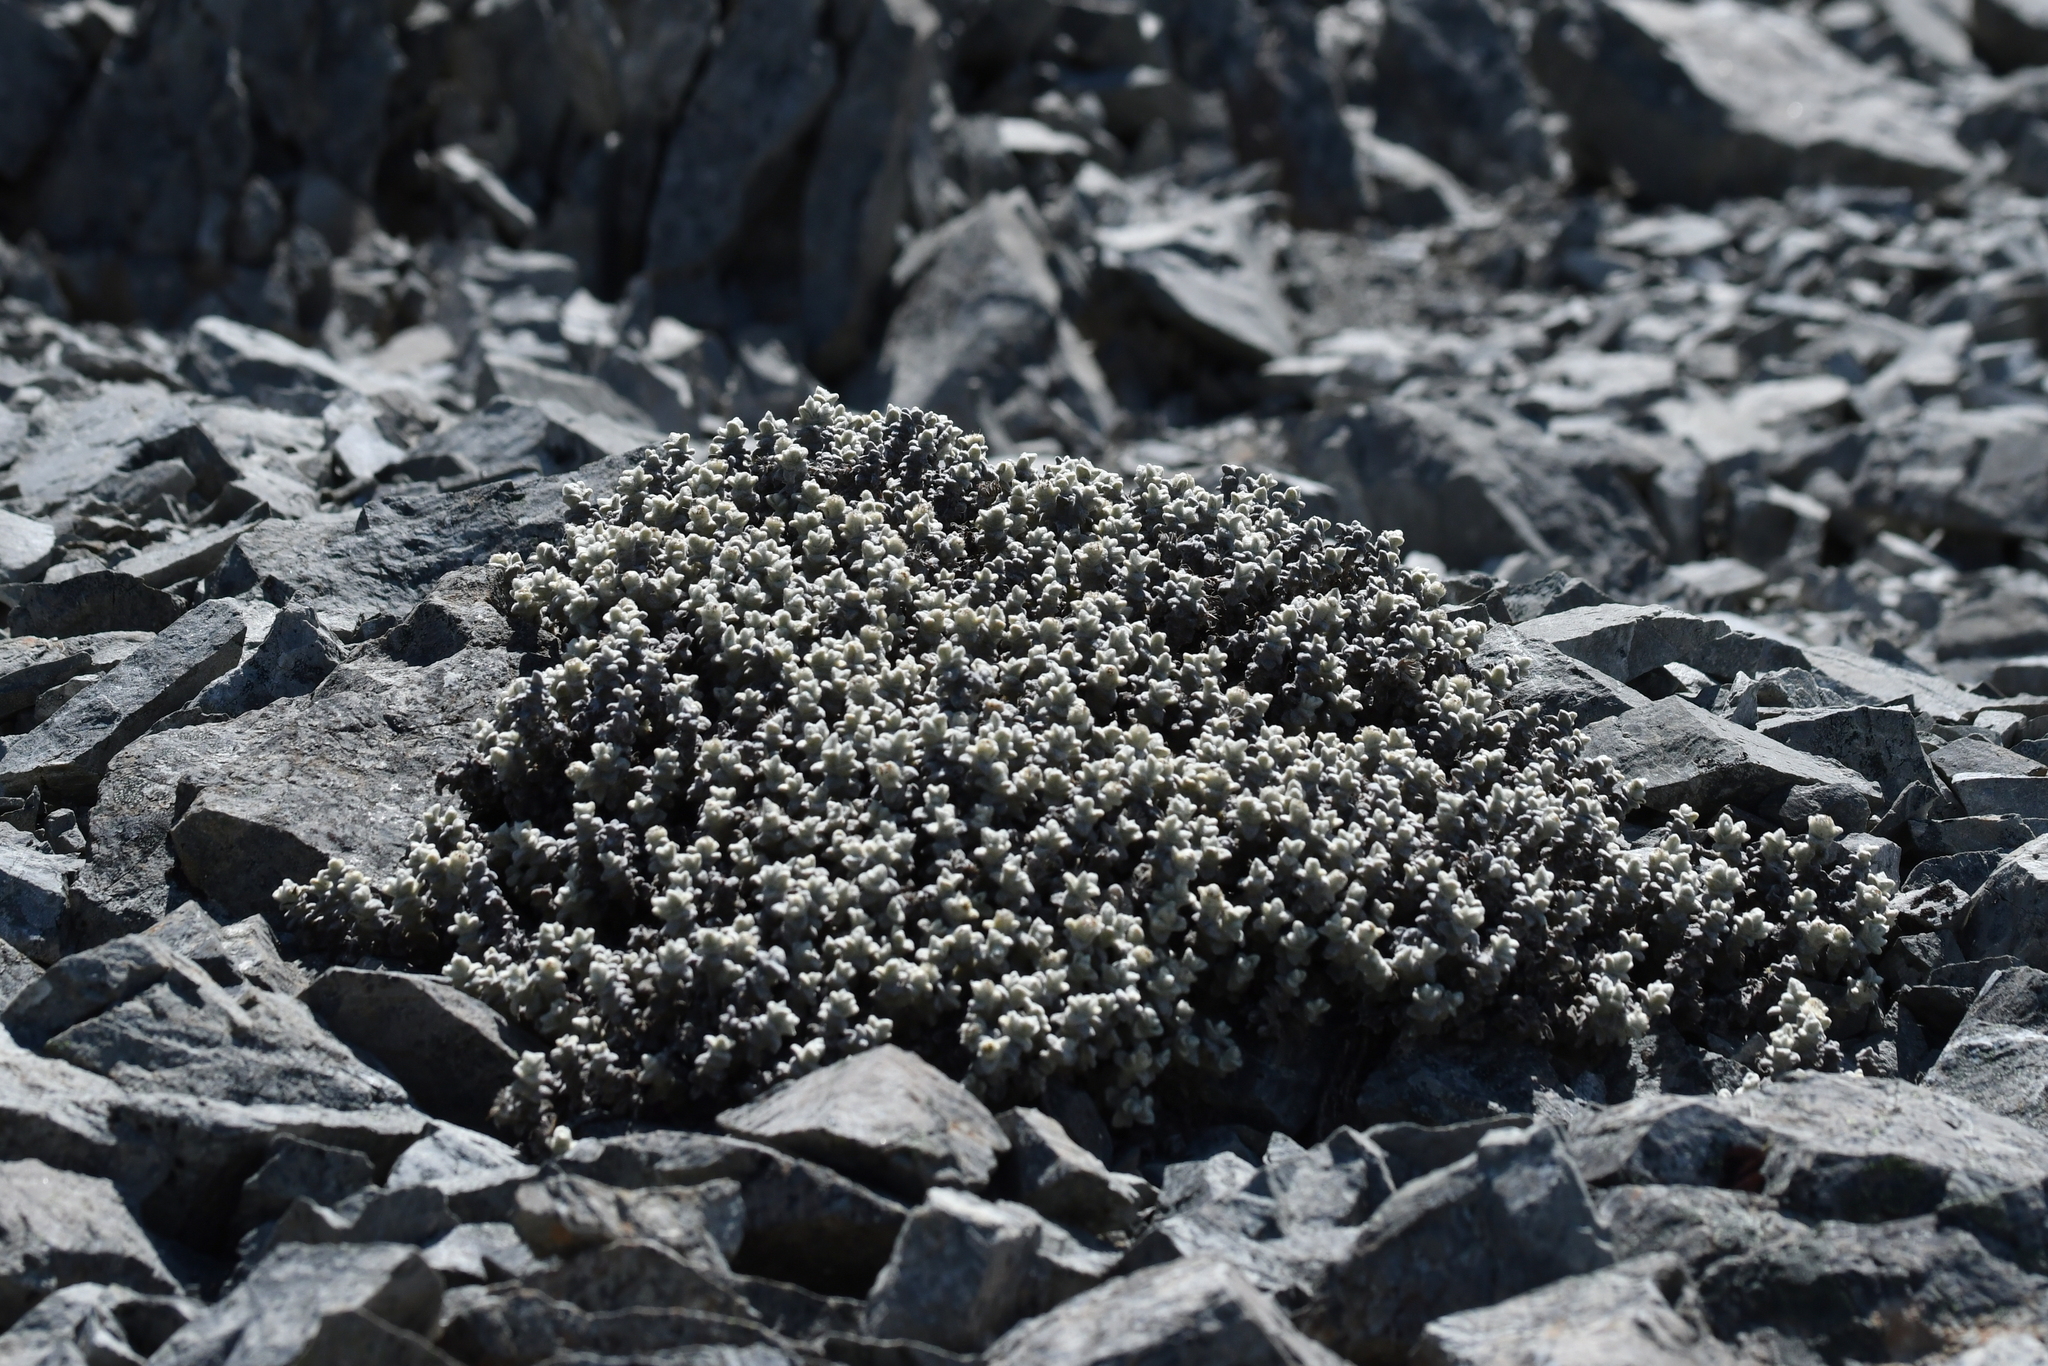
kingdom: Plantae
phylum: Tracheophyta
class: Magnoliopsida
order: Asterales
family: Asteraceae
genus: Haastia
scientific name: Haastia recurva
